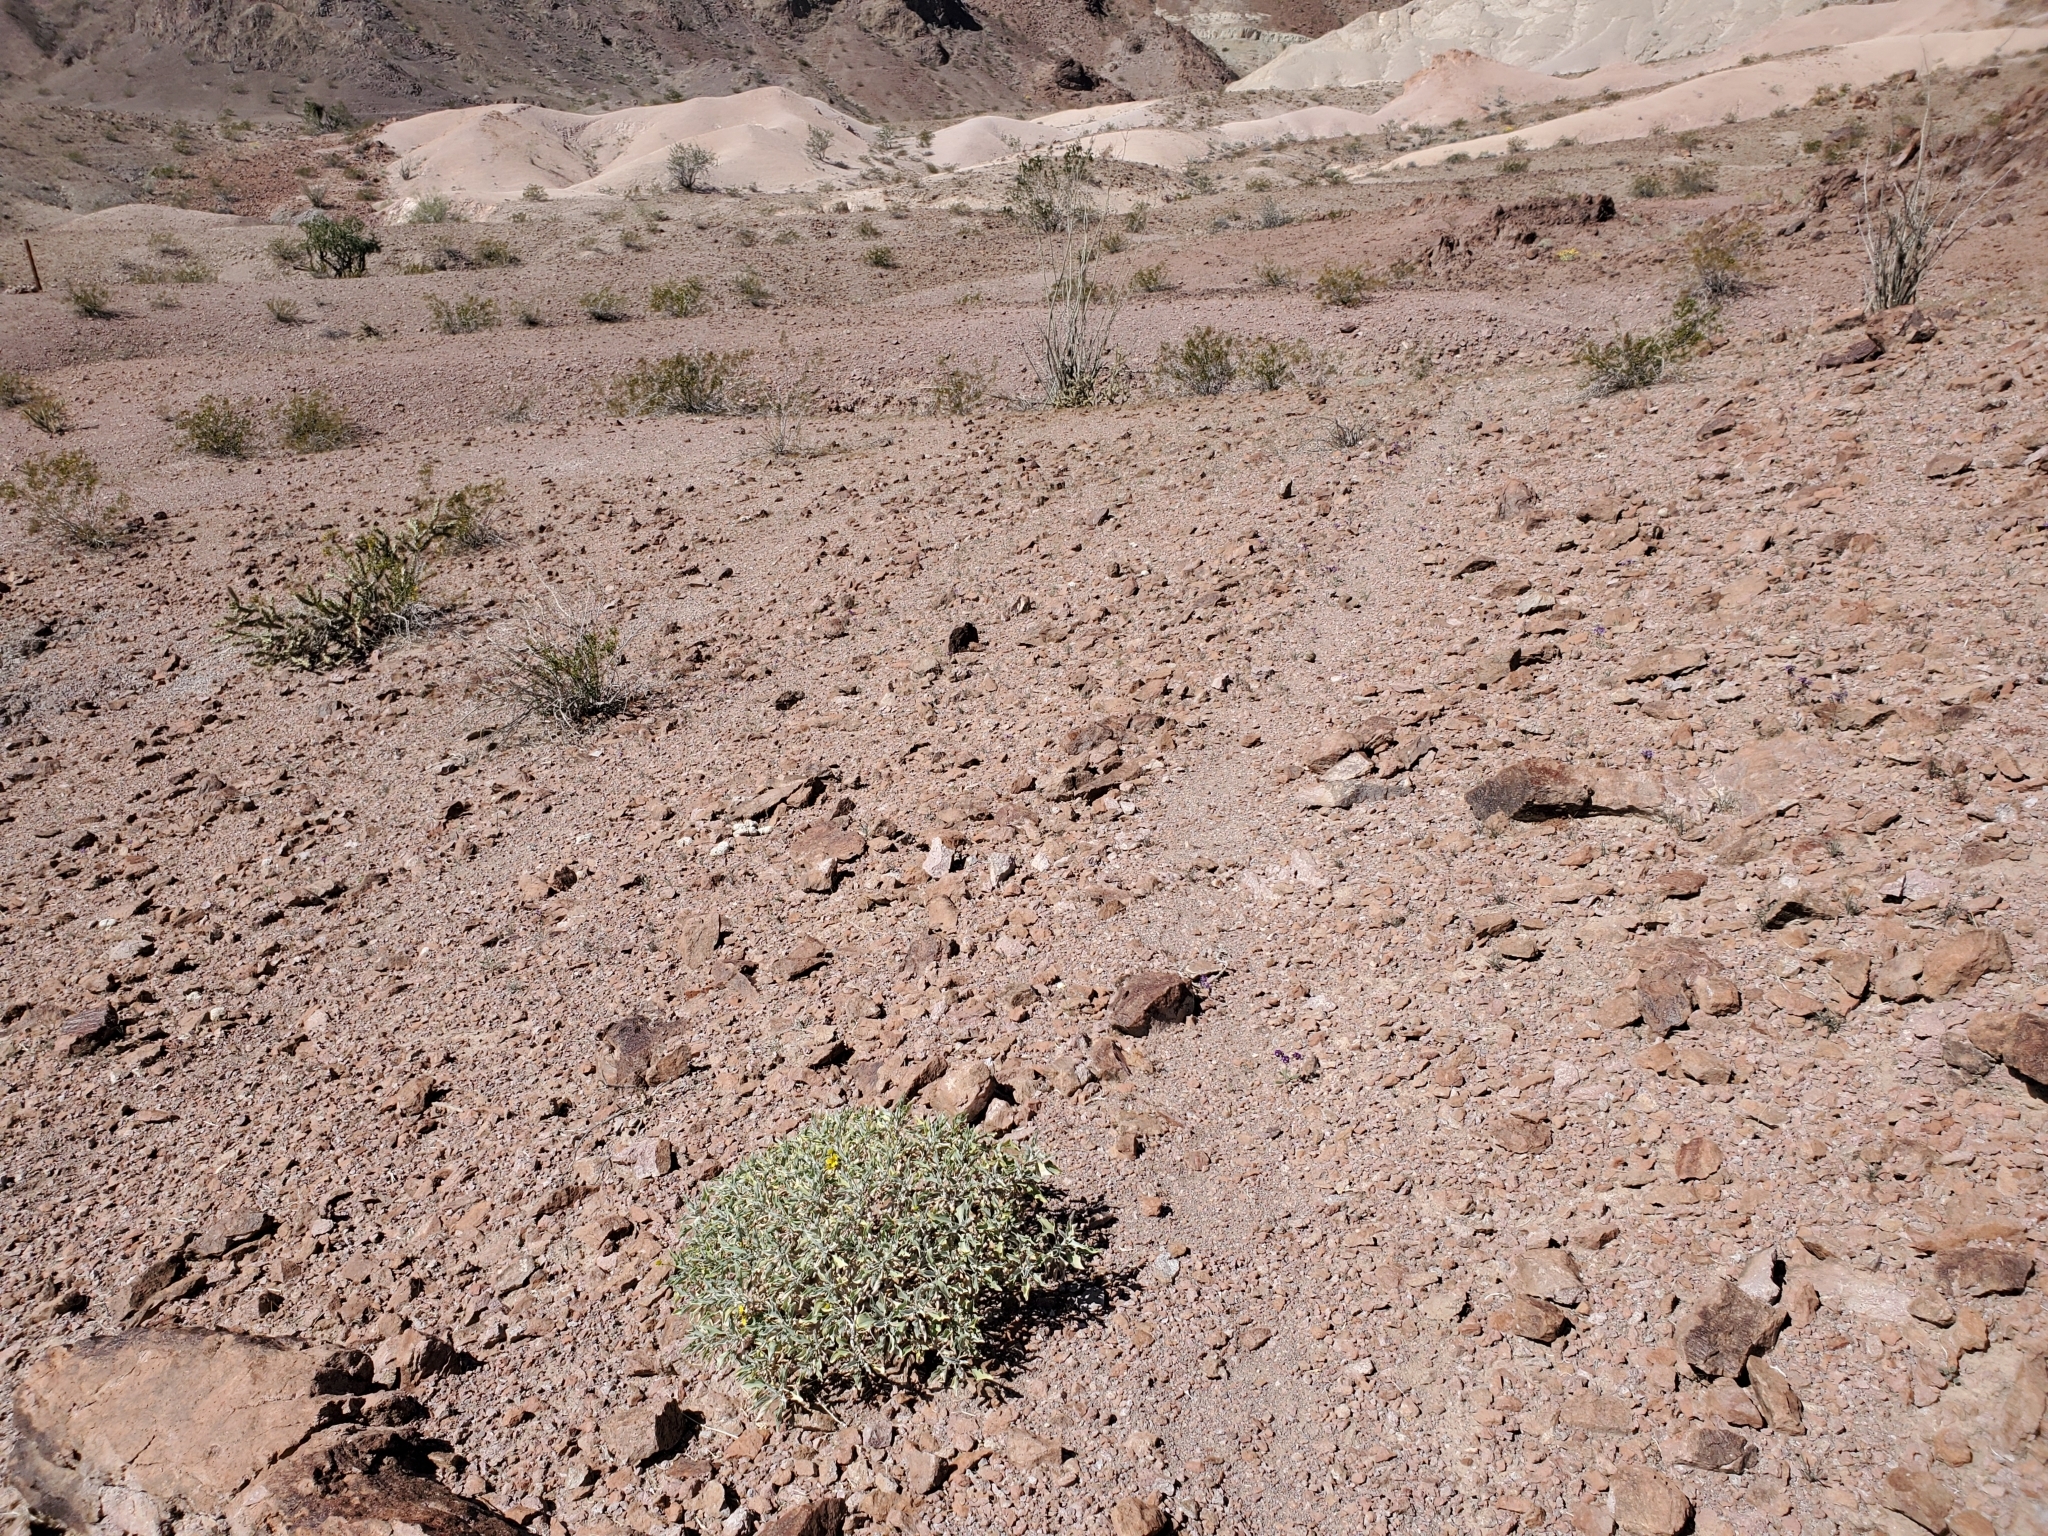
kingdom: Plantae
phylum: Tracheophyta
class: Magnoliopsida
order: Asterales
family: Asteraceae
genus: Encelia
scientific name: Encelia farinosa
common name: Brittlebush
